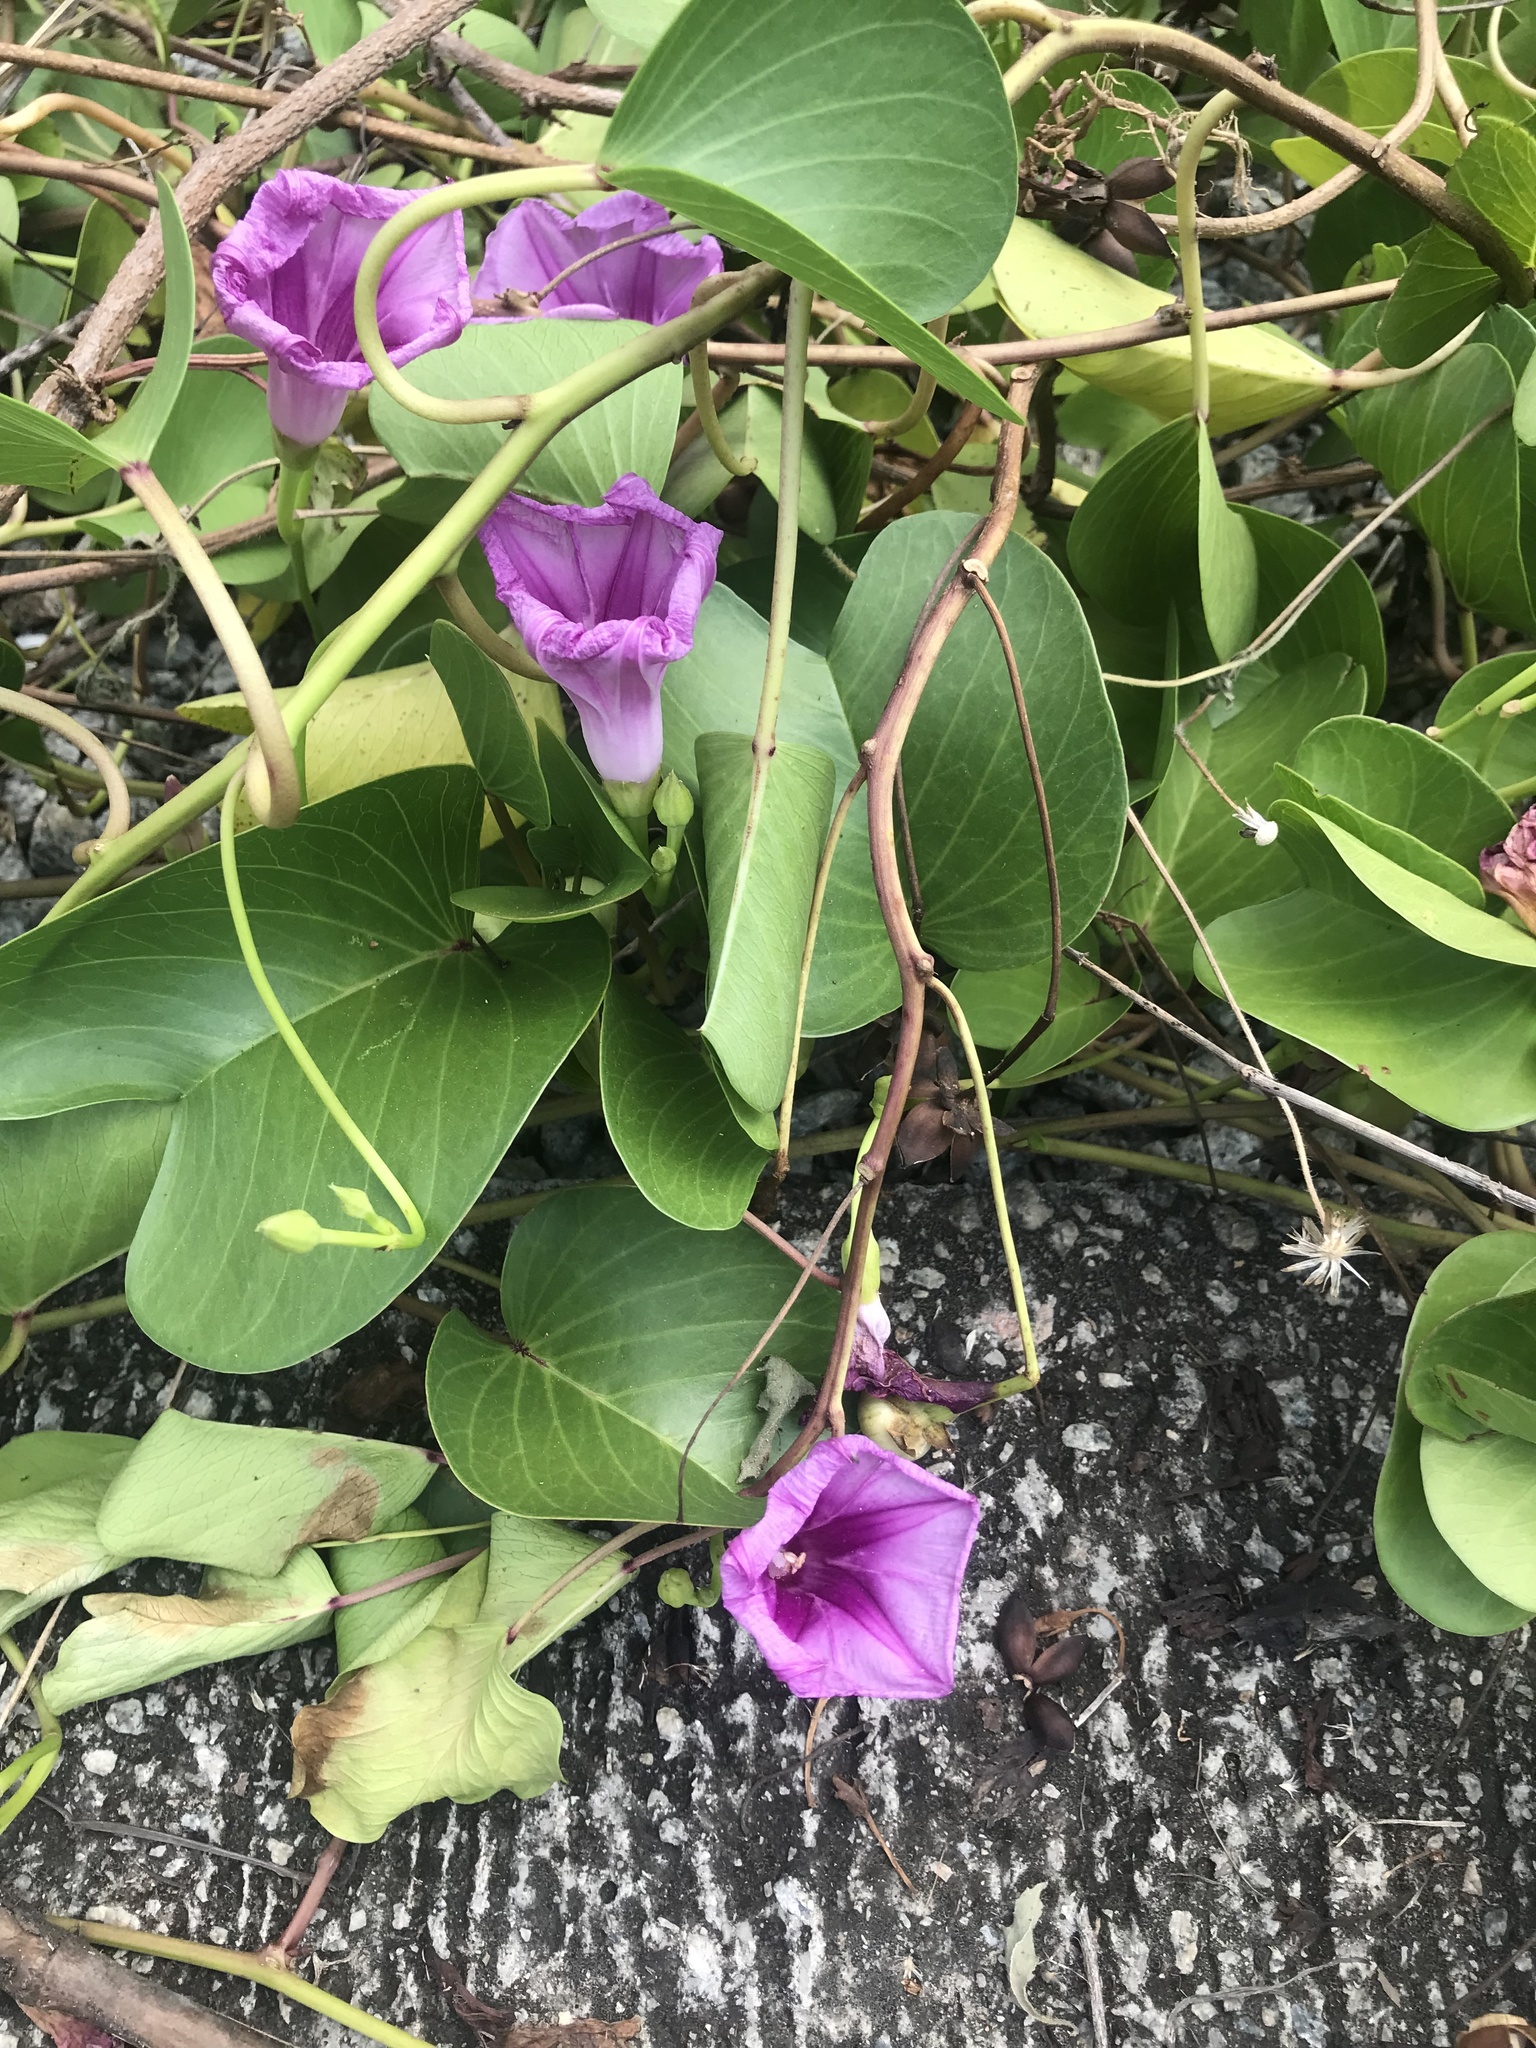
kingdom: Plantae
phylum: Tracheophyta
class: Magnoliopsida
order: Solanales
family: Convolvulaceae
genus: Ipomoea
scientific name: Ipomoea pes-caprae
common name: Beach morning glory
